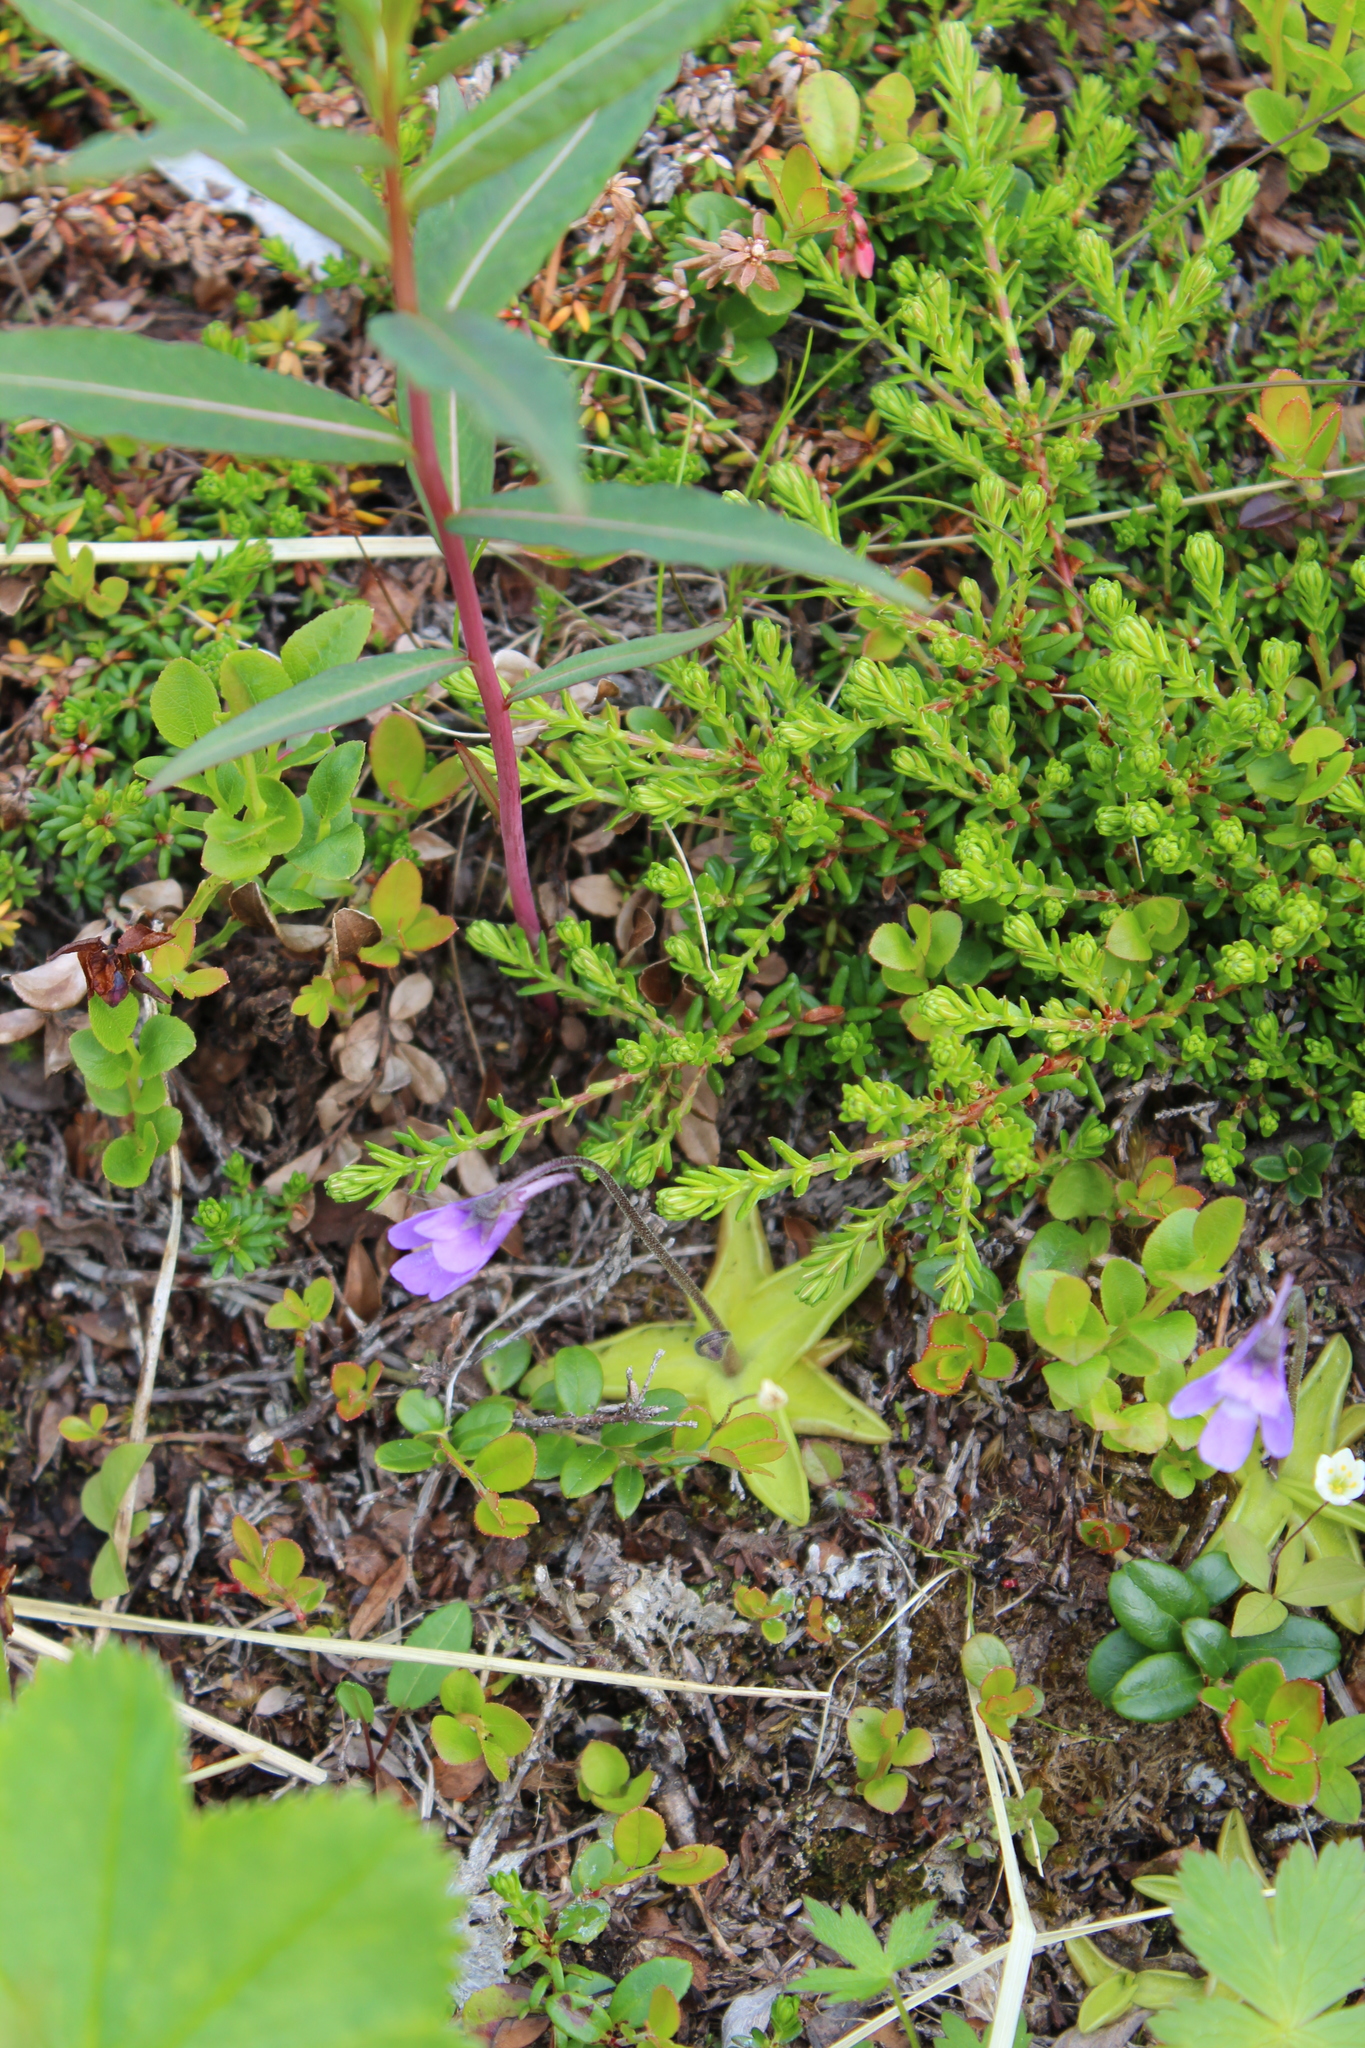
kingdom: Plantae
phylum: Tracheophyta
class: Magnoliopsida
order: Lamiales
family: Lentibulariaceae
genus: Pinguicula
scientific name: Pinguicula vulgaris
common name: Common butterwort
